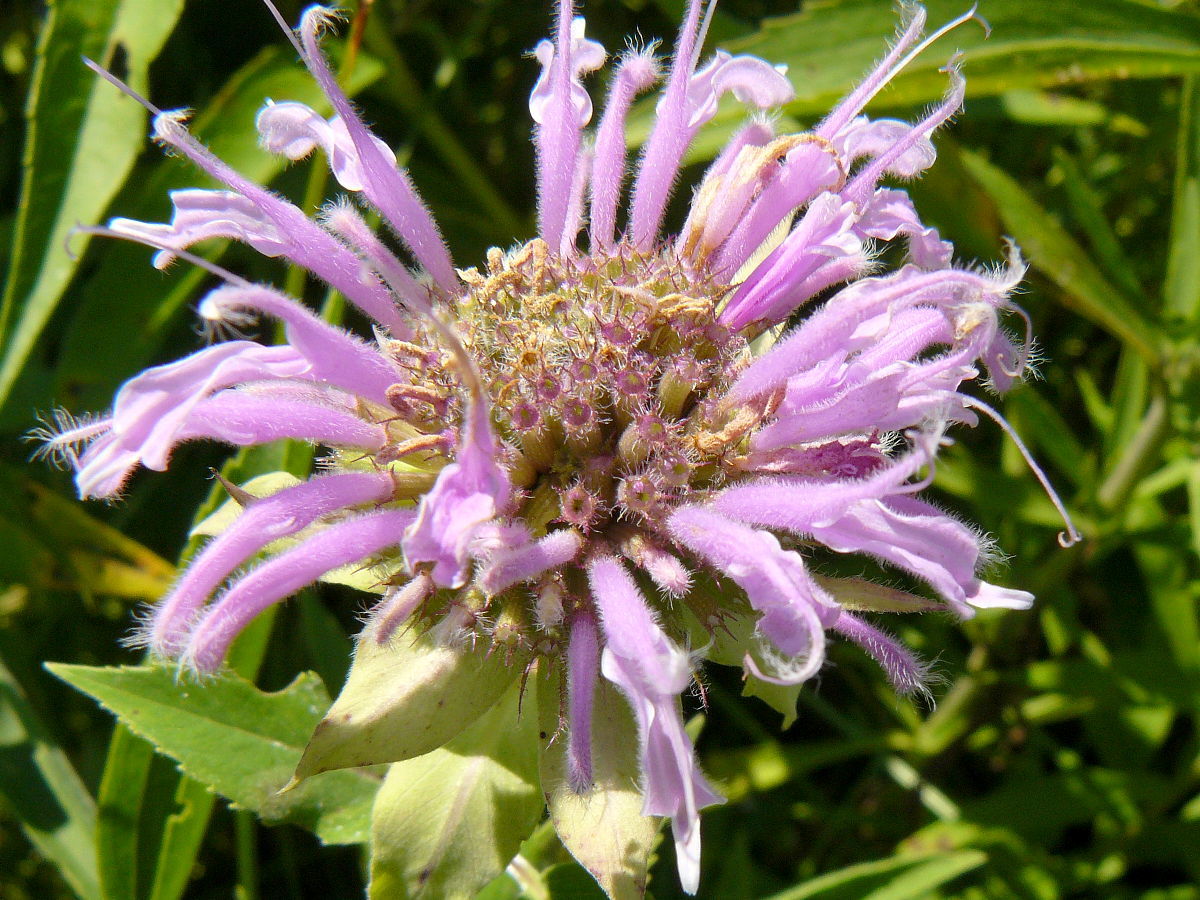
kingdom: Plantae
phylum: Tracheophyta
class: Magnoliopsida
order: Lamiales
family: Lamiaceae
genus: Monarda
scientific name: Monarda fistulosa
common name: Purple beebalm
